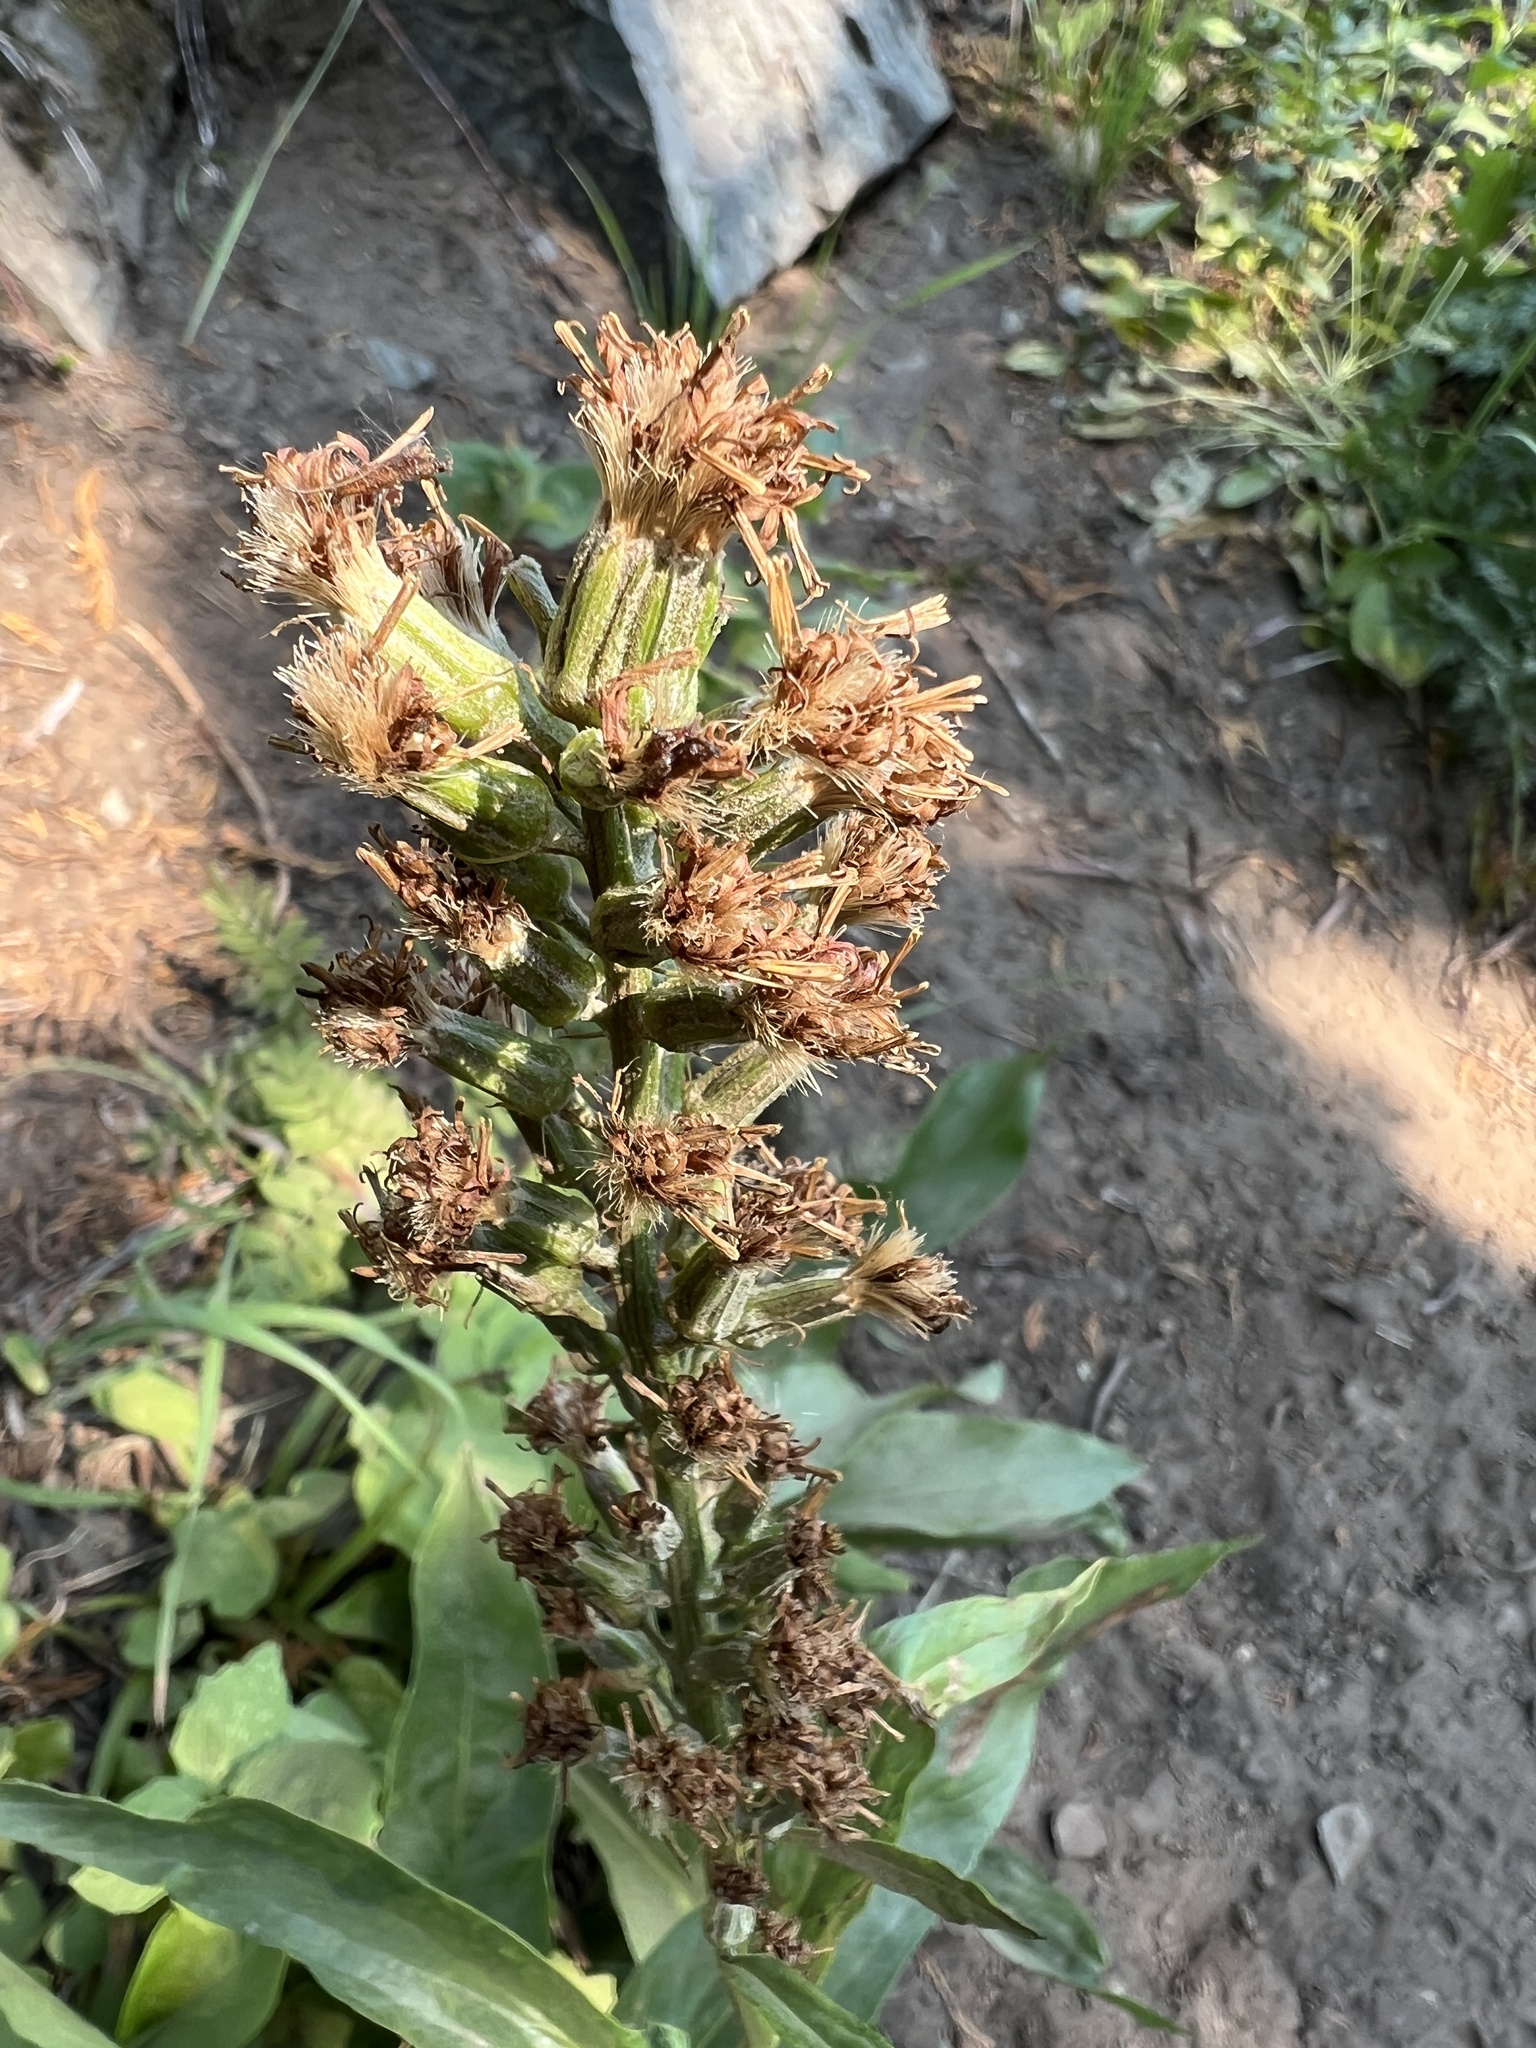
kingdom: Plantae
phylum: Tracheophyta
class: Magnoliopsida
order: Asterales
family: Asteraceae
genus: Rainiera
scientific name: Rainiera stricta
